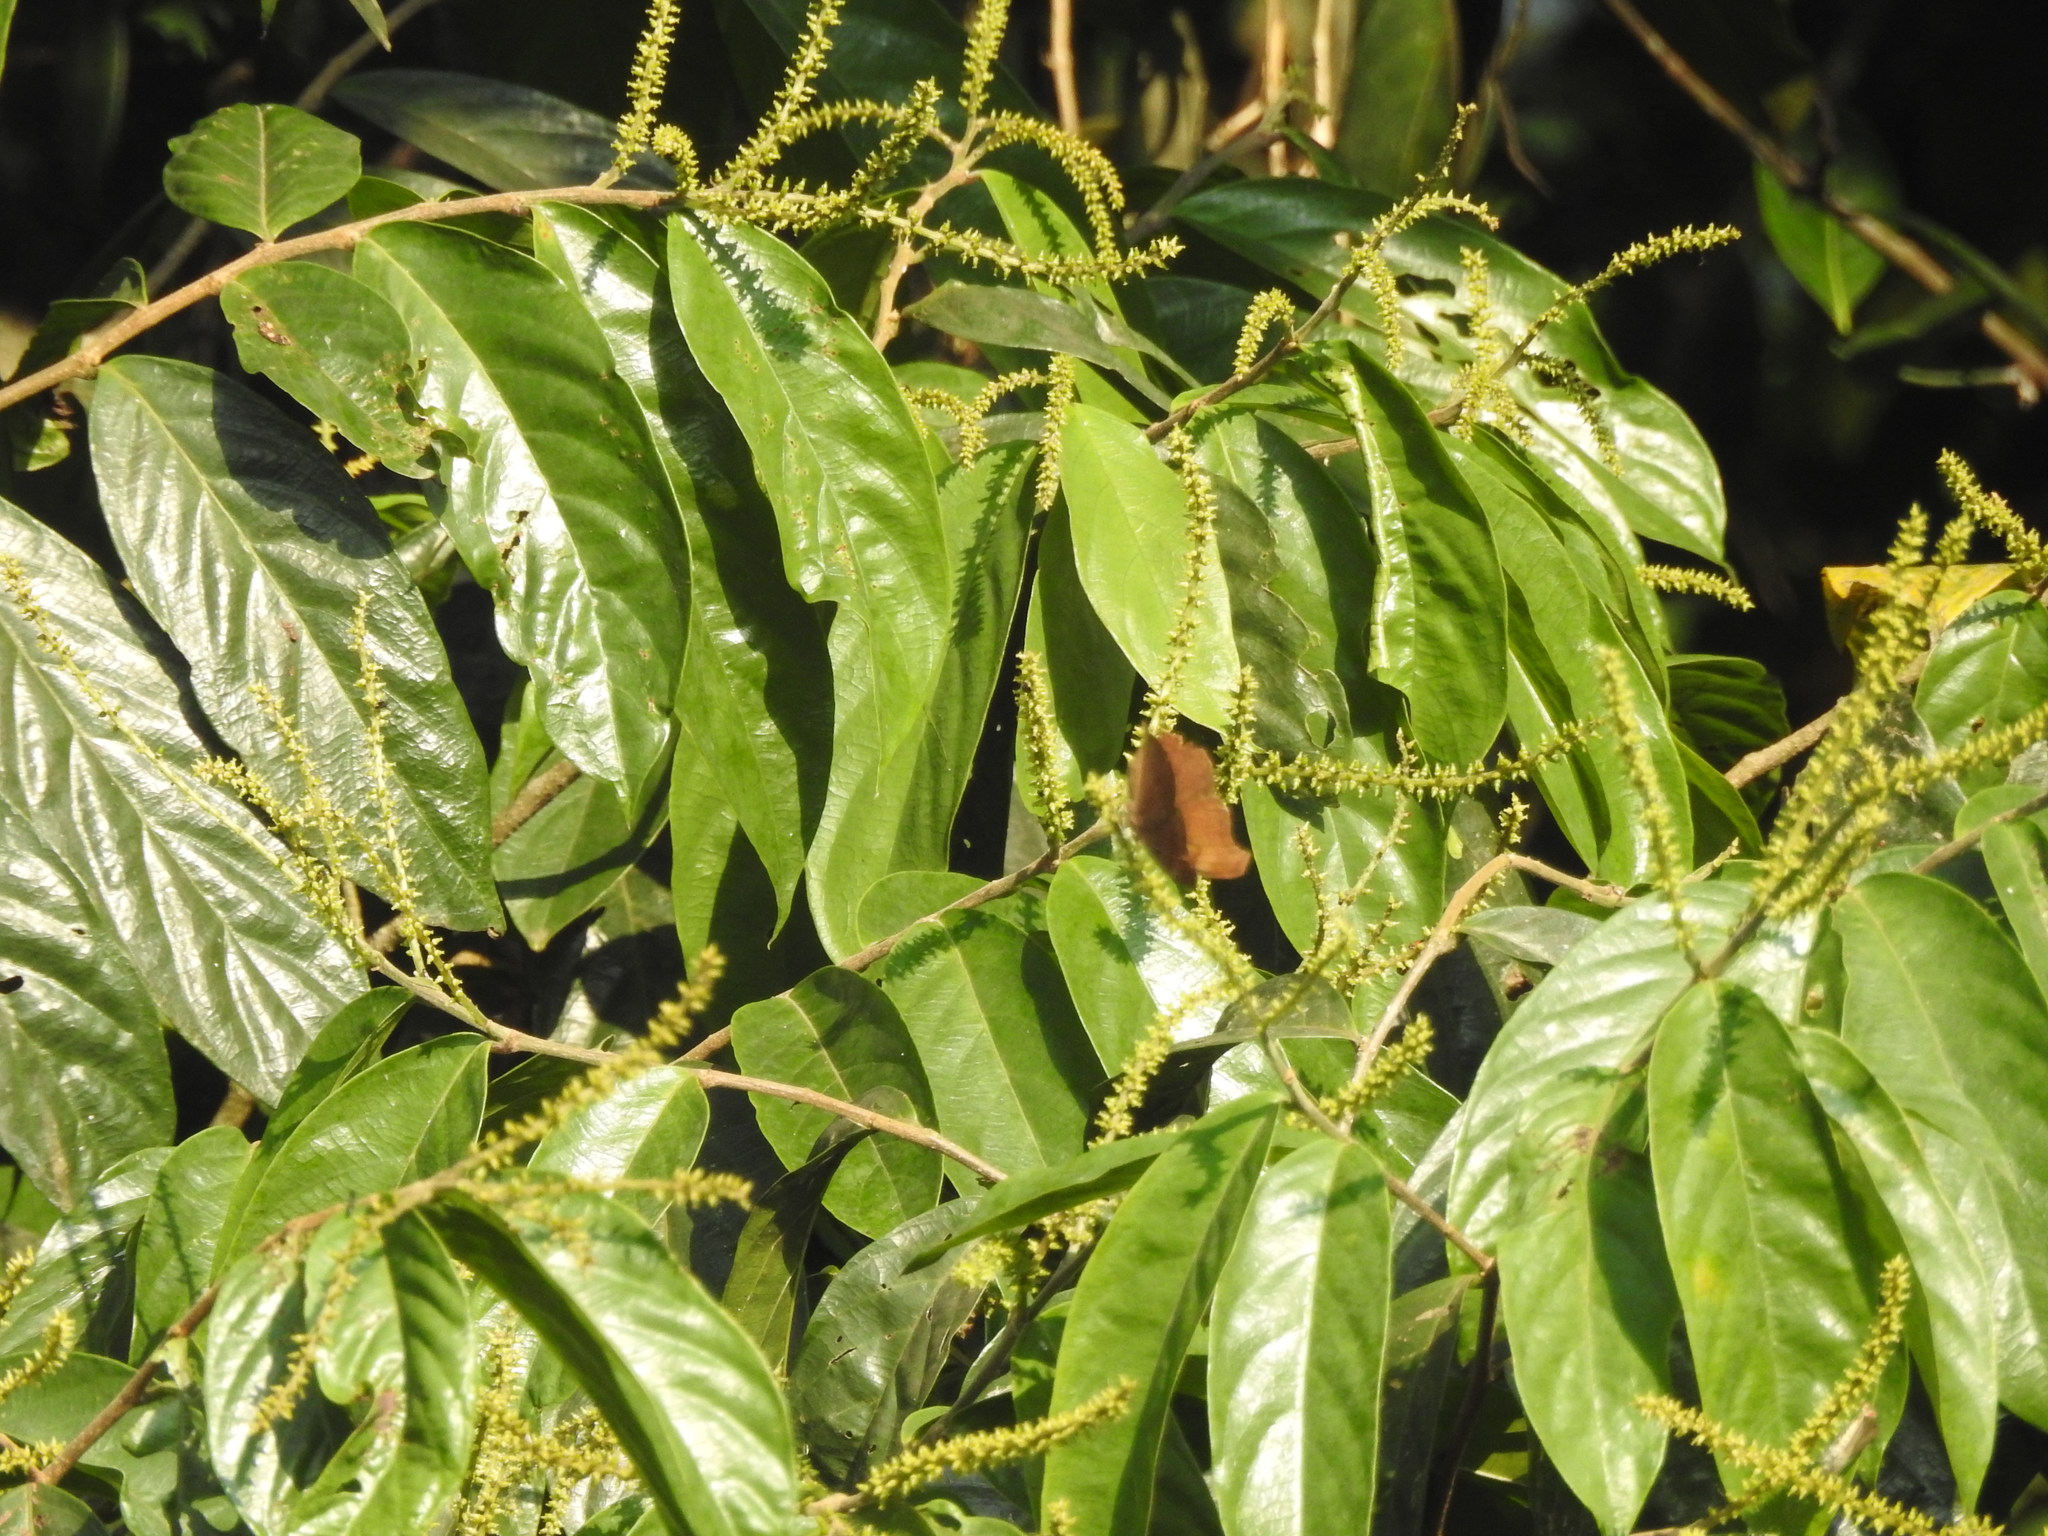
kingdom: Animalia
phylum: Arthropoda
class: Insecta
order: Lepidoptera
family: Nymphalidae
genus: Junonia
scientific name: Junonia iphita
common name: Chocolate pansy
